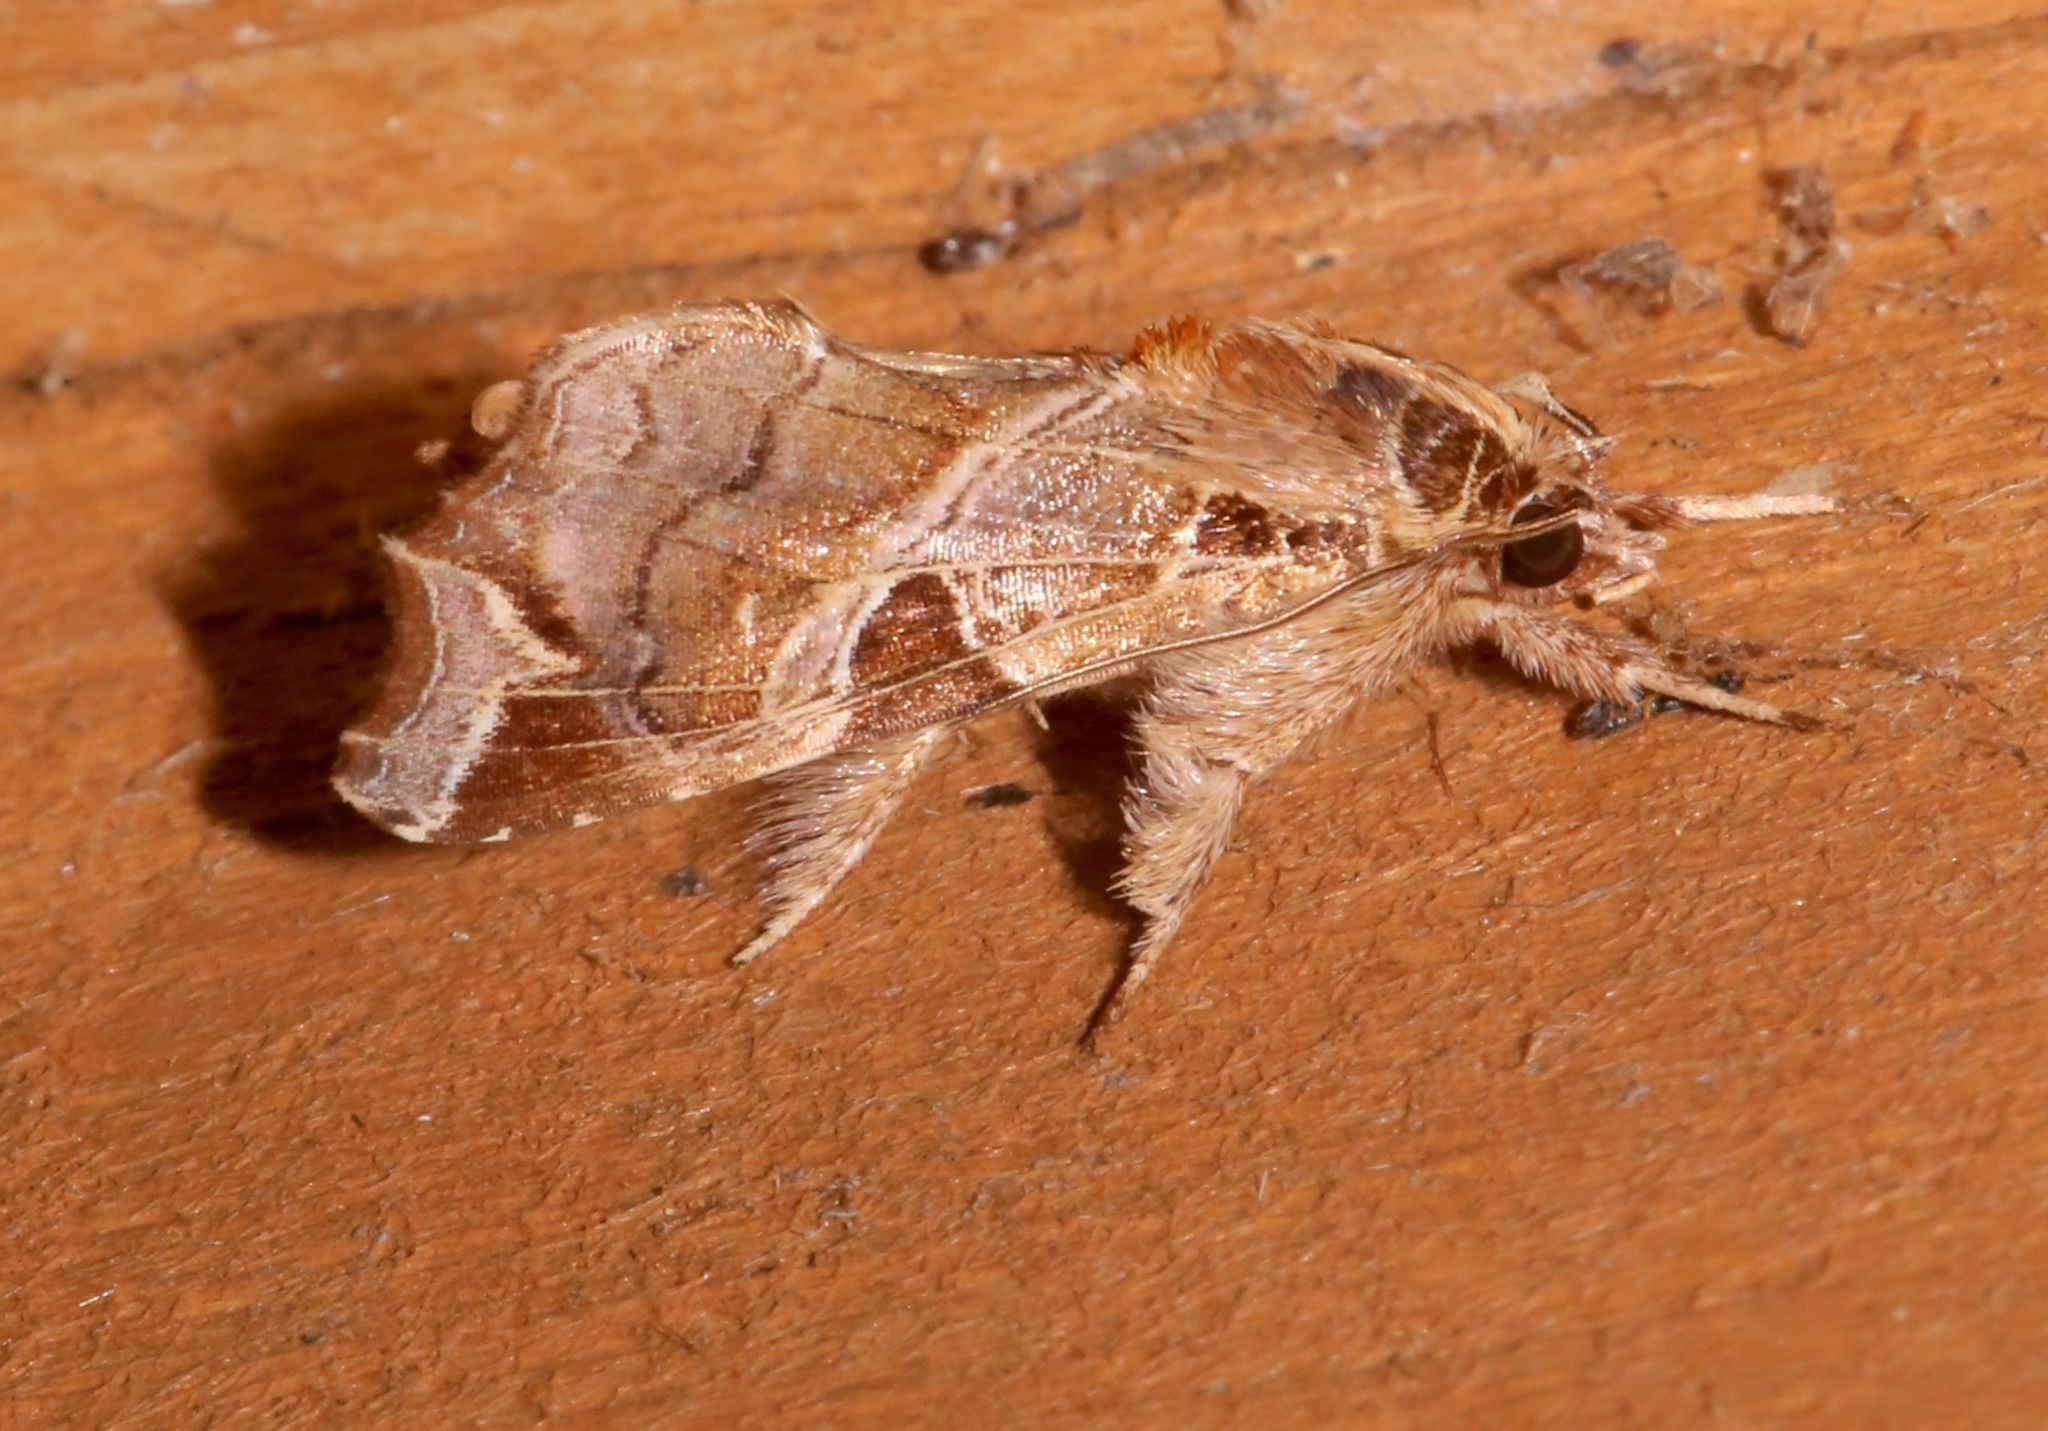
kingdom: Animalia
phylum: Arthropoda
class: Insecta
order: Lepidoptera
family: Noctuidae
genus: Callopistria
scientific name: Callopistria floridensis
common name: Florida fern moth
